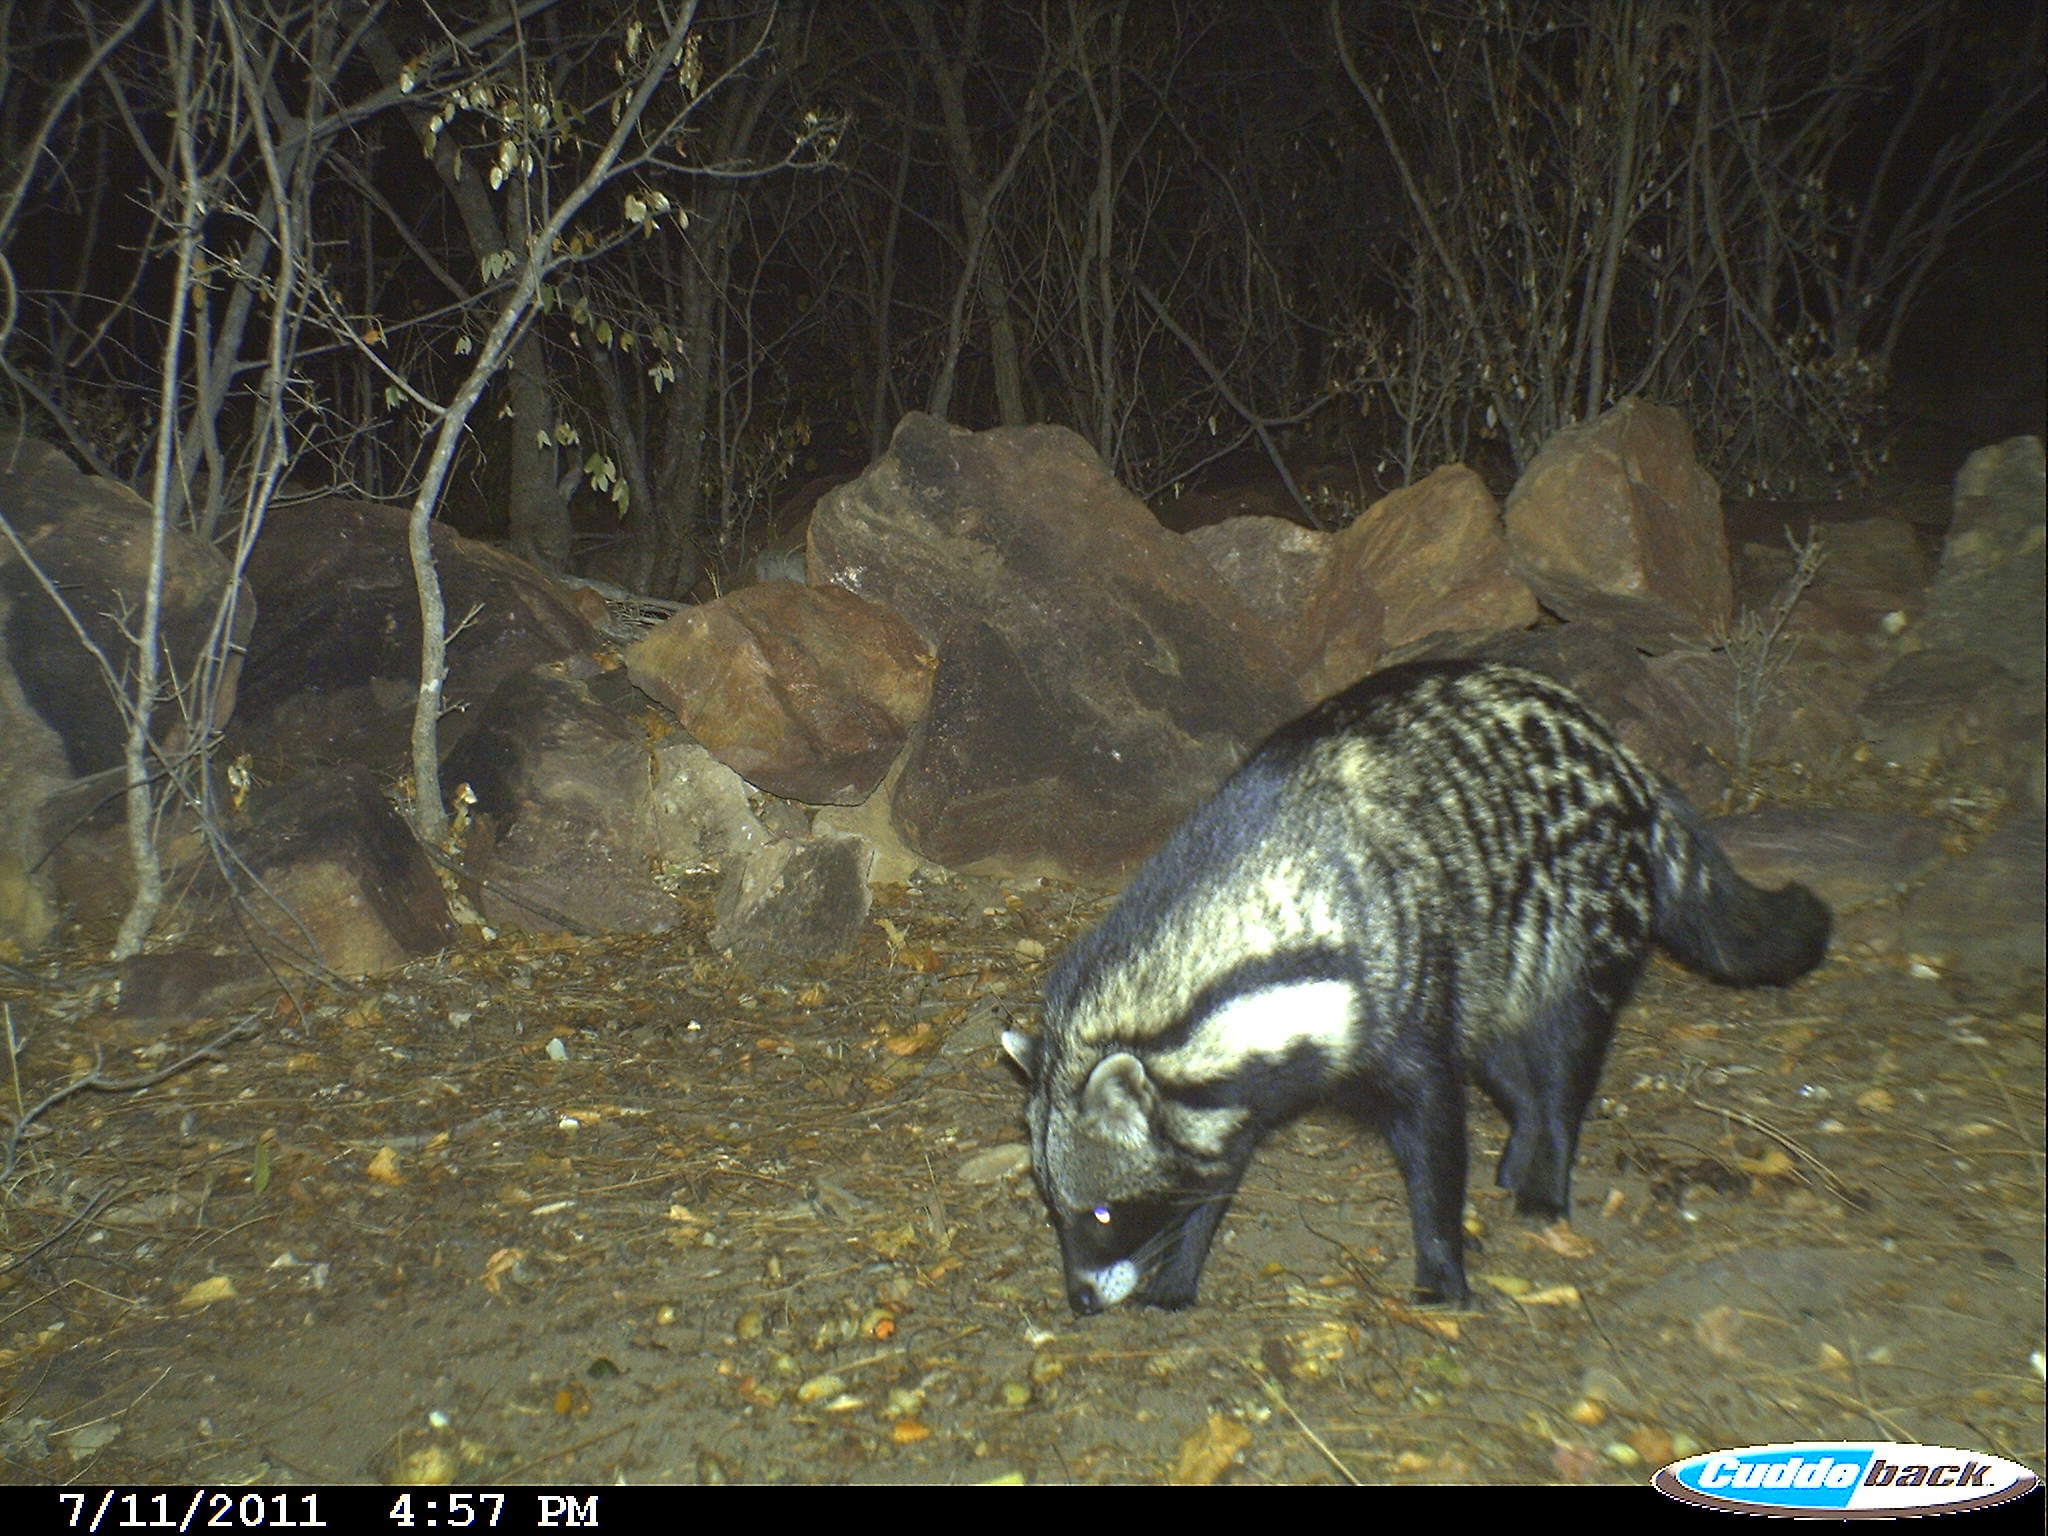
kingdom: Animalia
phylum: Chordata
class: Mammalia
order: Carnivora
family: Viverridae
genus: Civettictis
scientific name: Civettictis civetta
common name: African civet
